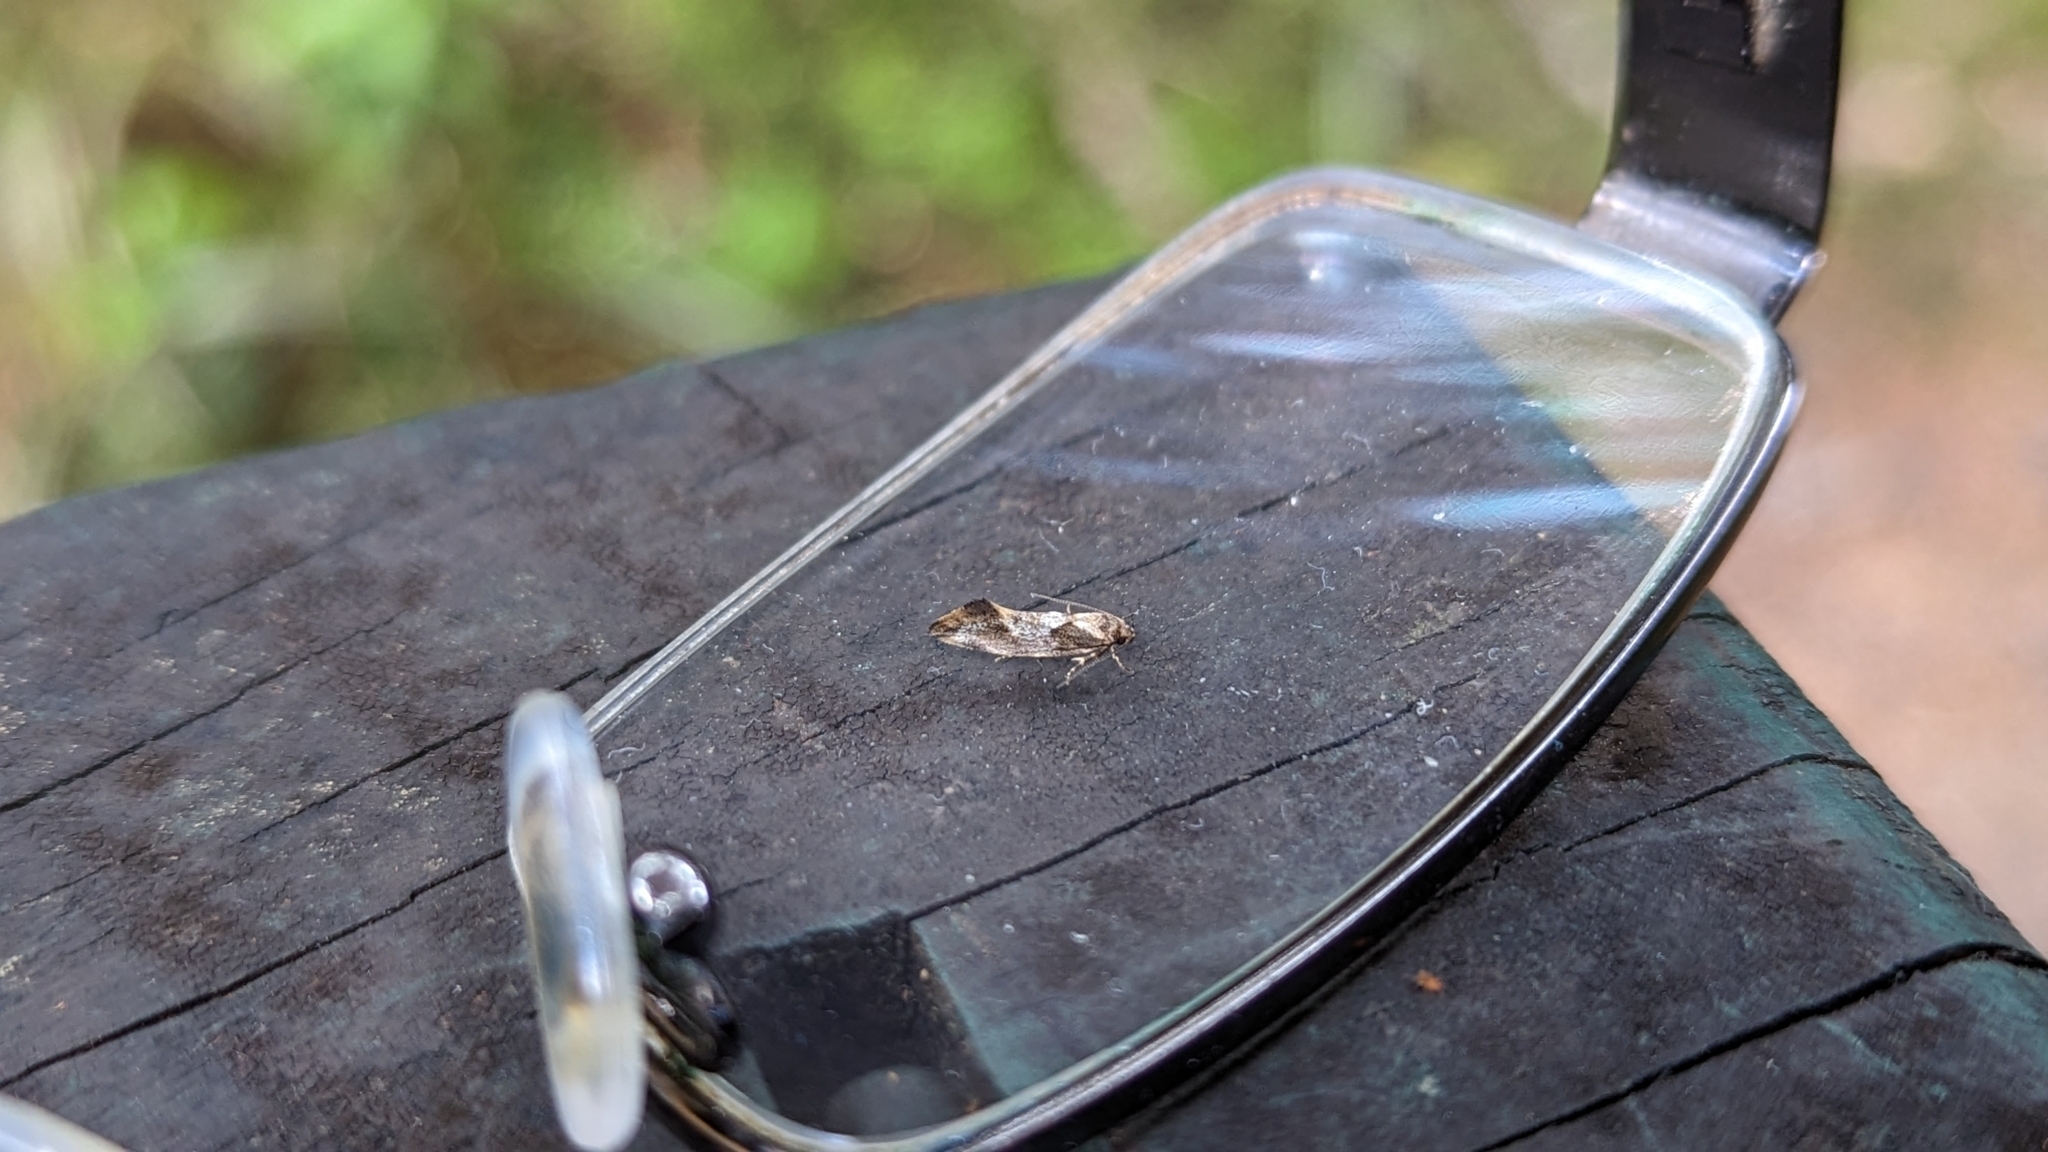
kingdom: Animalia
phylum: Arthropoda
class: Insecta
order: Lepidoptera
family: Oecophoridae
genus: Tingena
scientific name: Tingena
